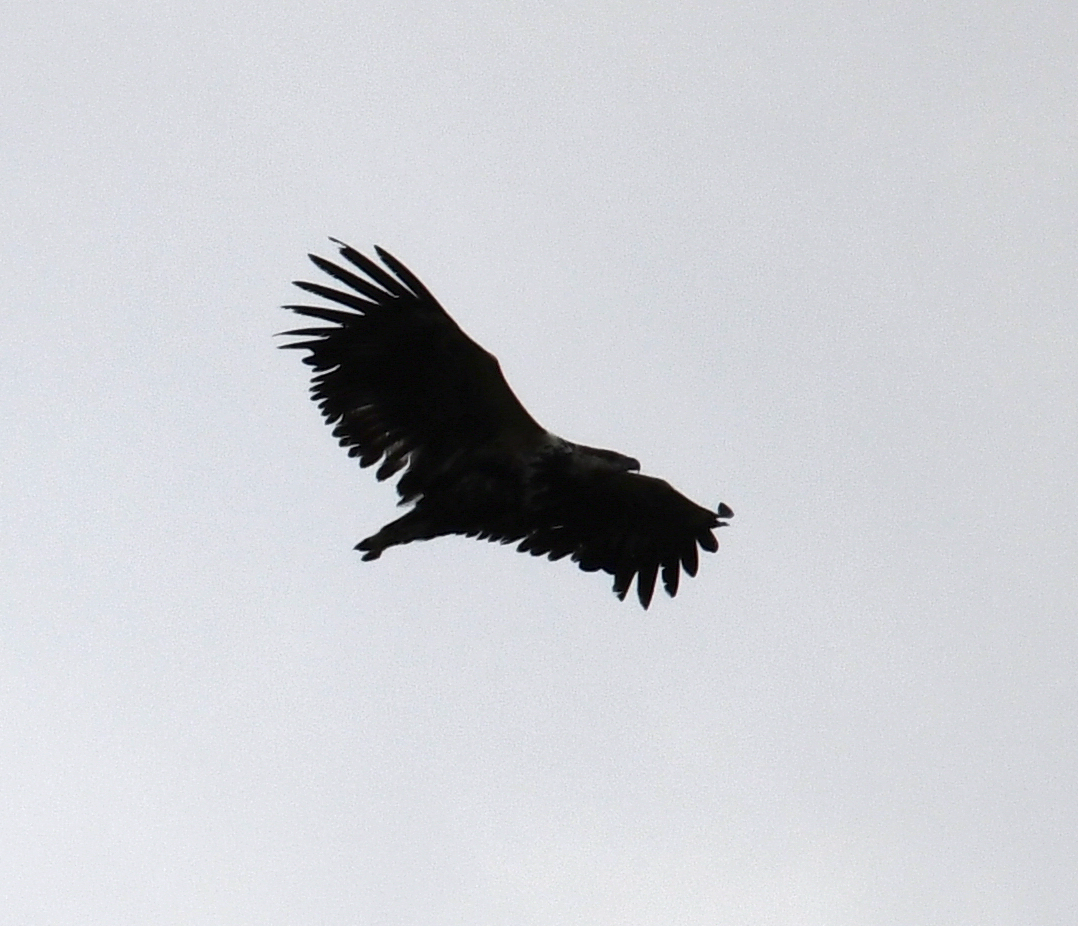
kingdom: Animalia
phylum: Chordata
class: Aves
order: Accipitriformes
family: Accipitridae
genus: Haliaeetus
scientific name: Haliaeetus vocifer
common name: African fish eagle
